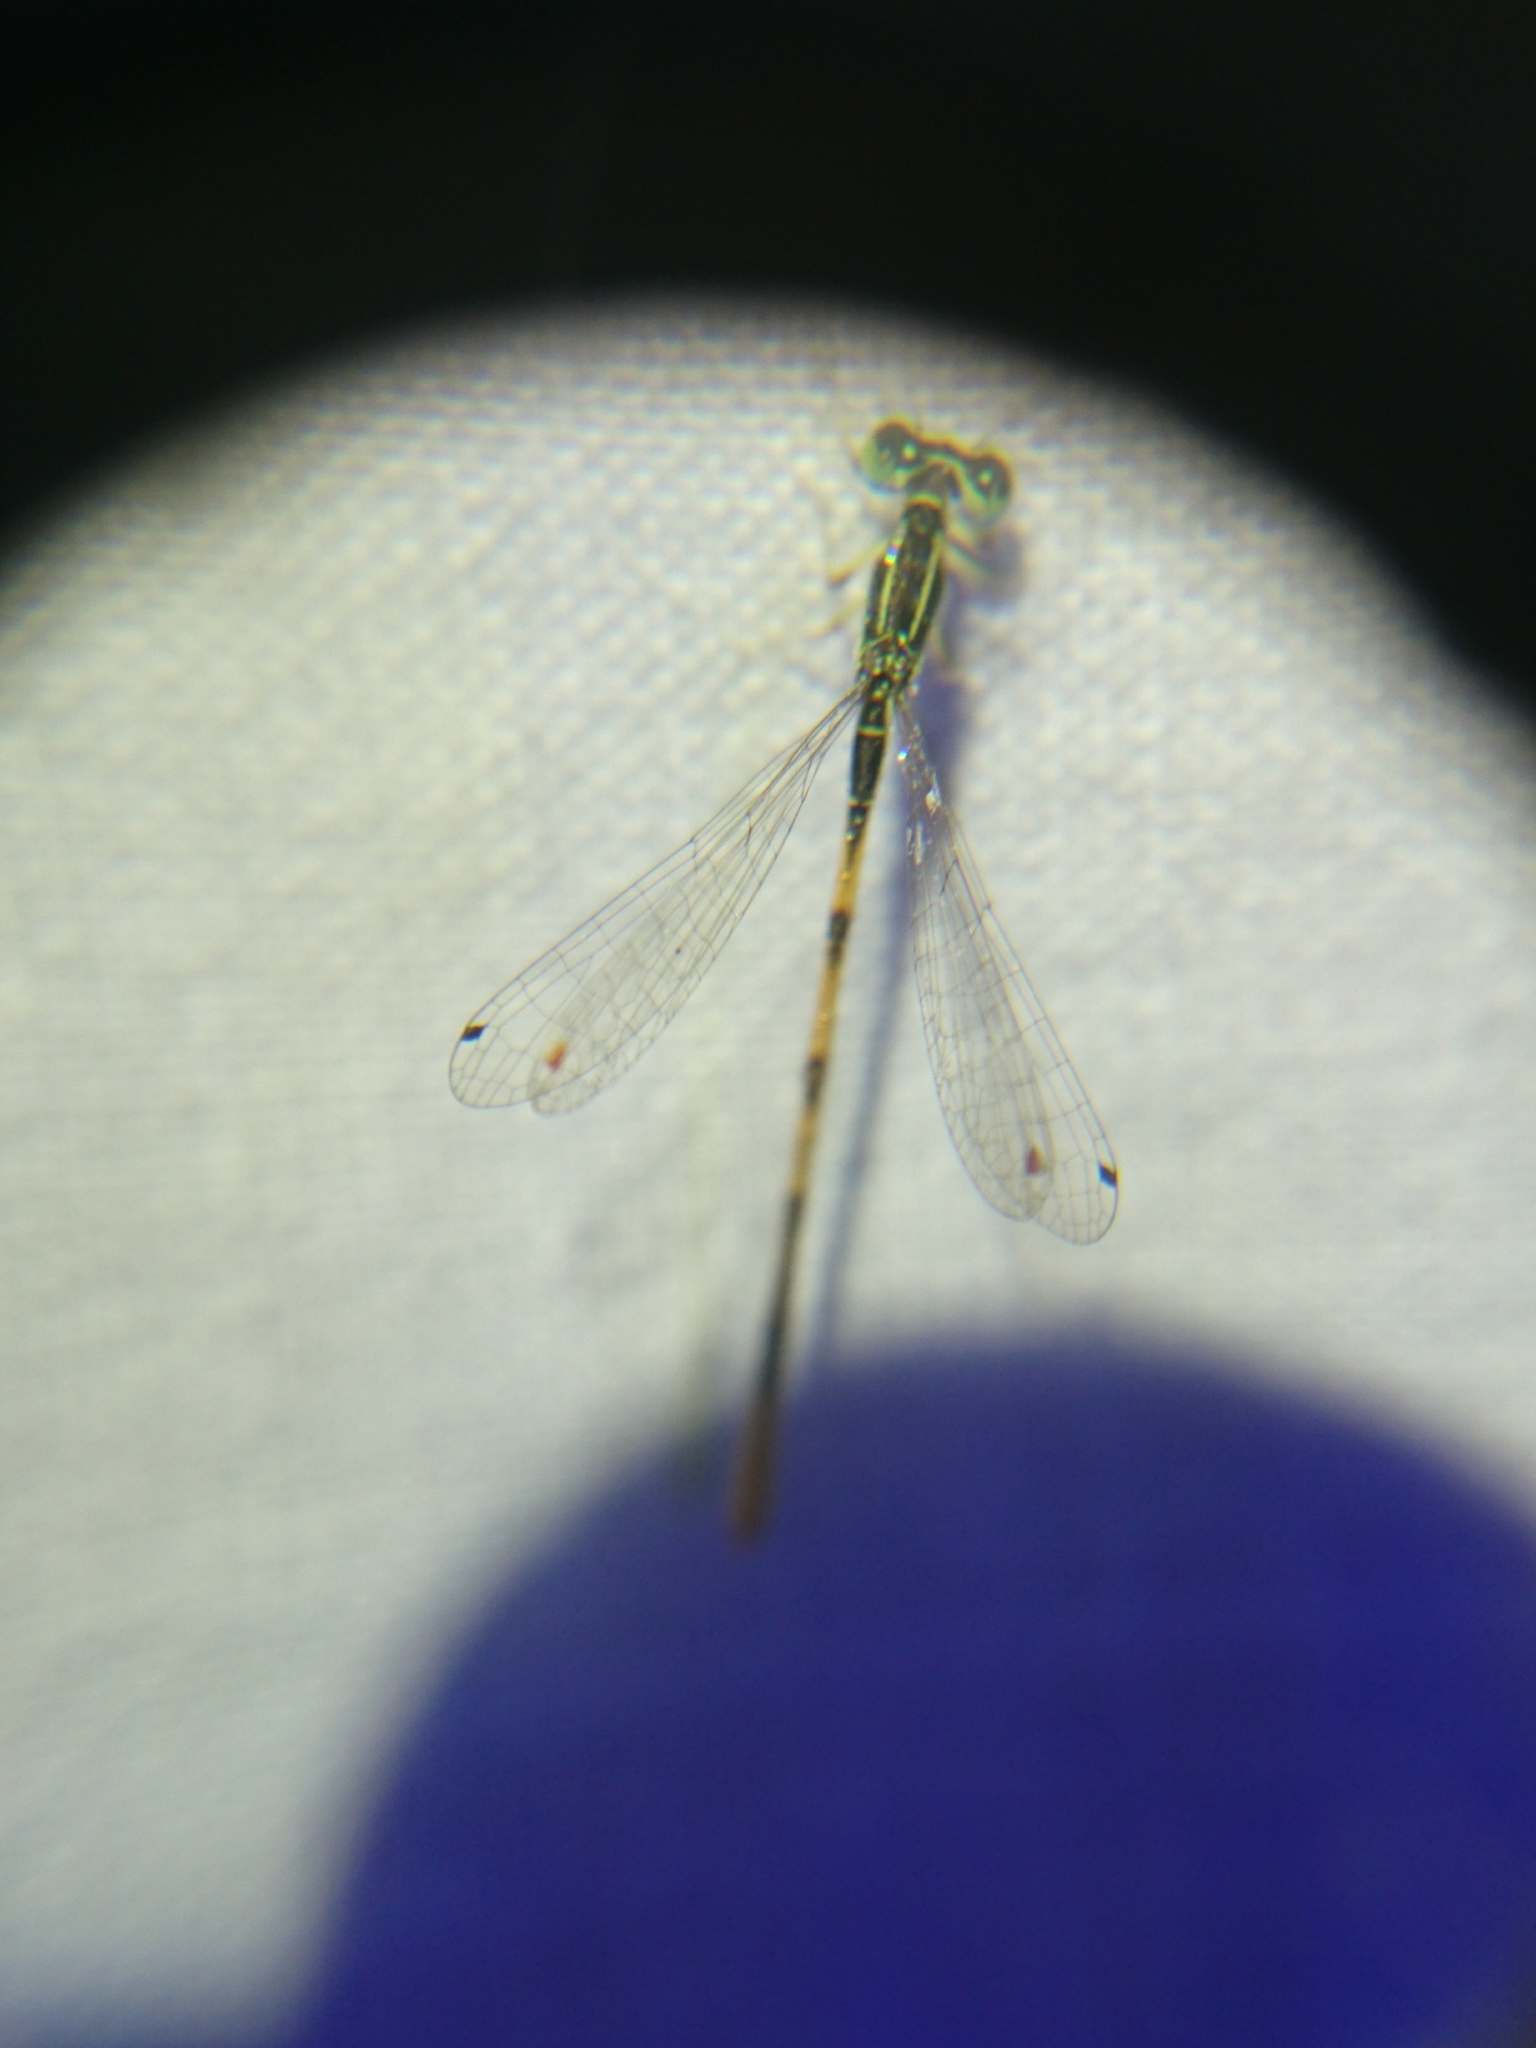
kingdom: Animalia
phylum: Arthropoda
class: Insecta
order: Odonata
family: Coenagrionidae
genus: Ischnura
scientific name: Ischnura hastata
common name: Citrine forktail
